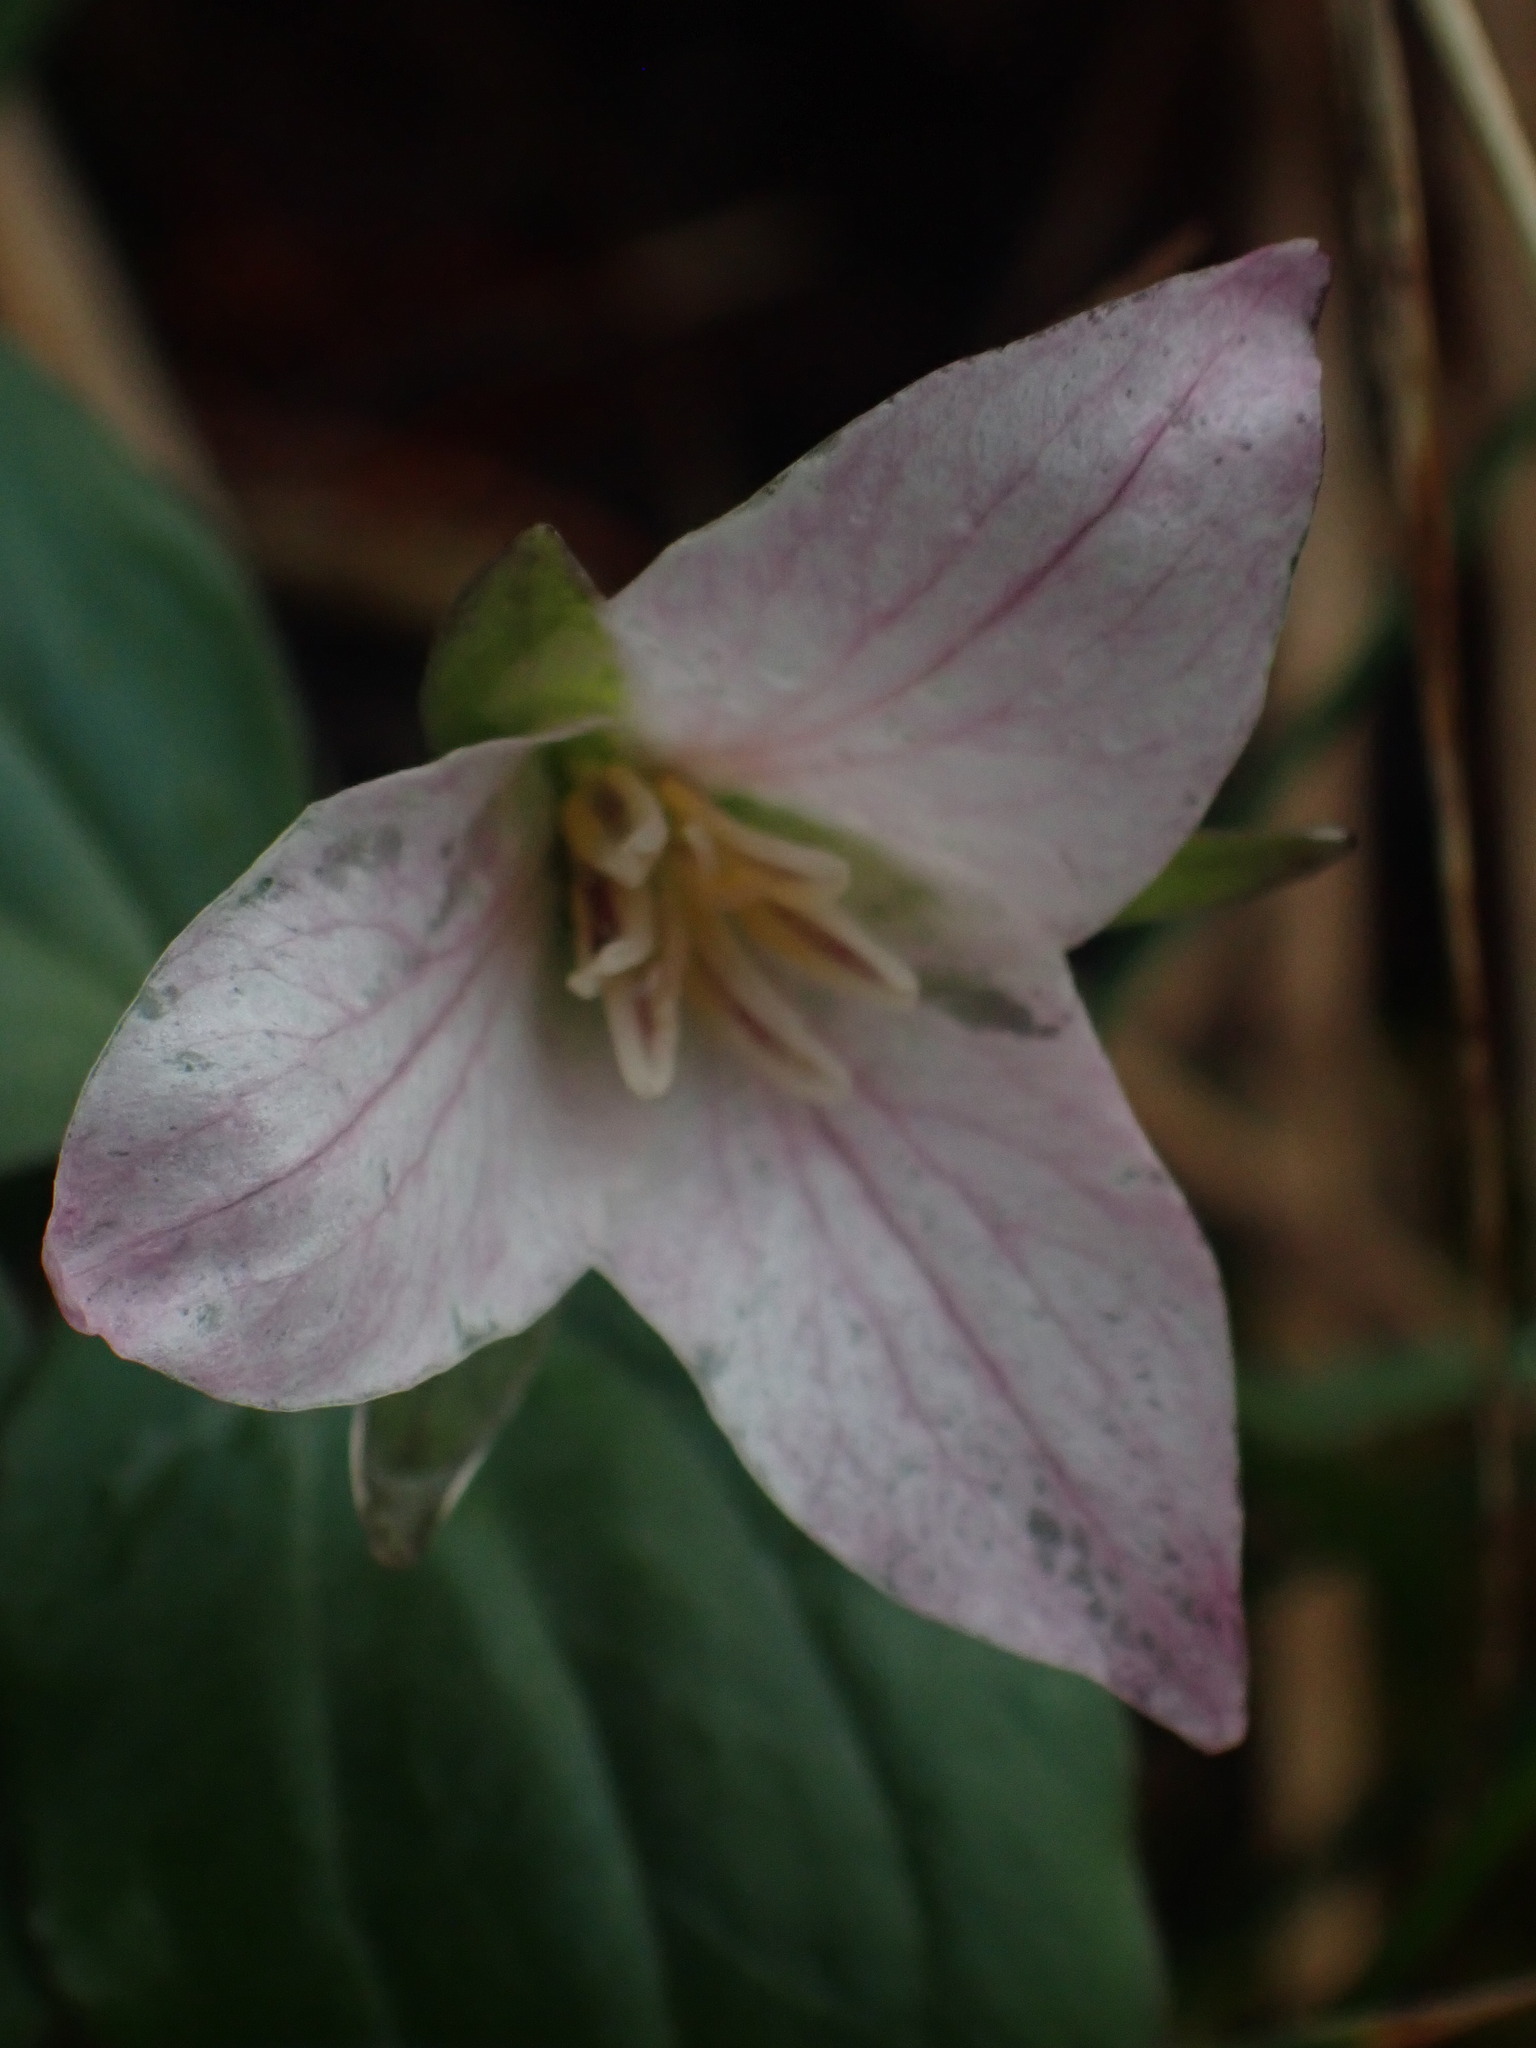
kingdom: Plantae
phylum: Tracheophyta
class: Liliopsida
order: Liliales
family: Melanthiaceae
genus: Trillium
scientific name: Trillium hibbersonii
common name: Hibberson's trillium
